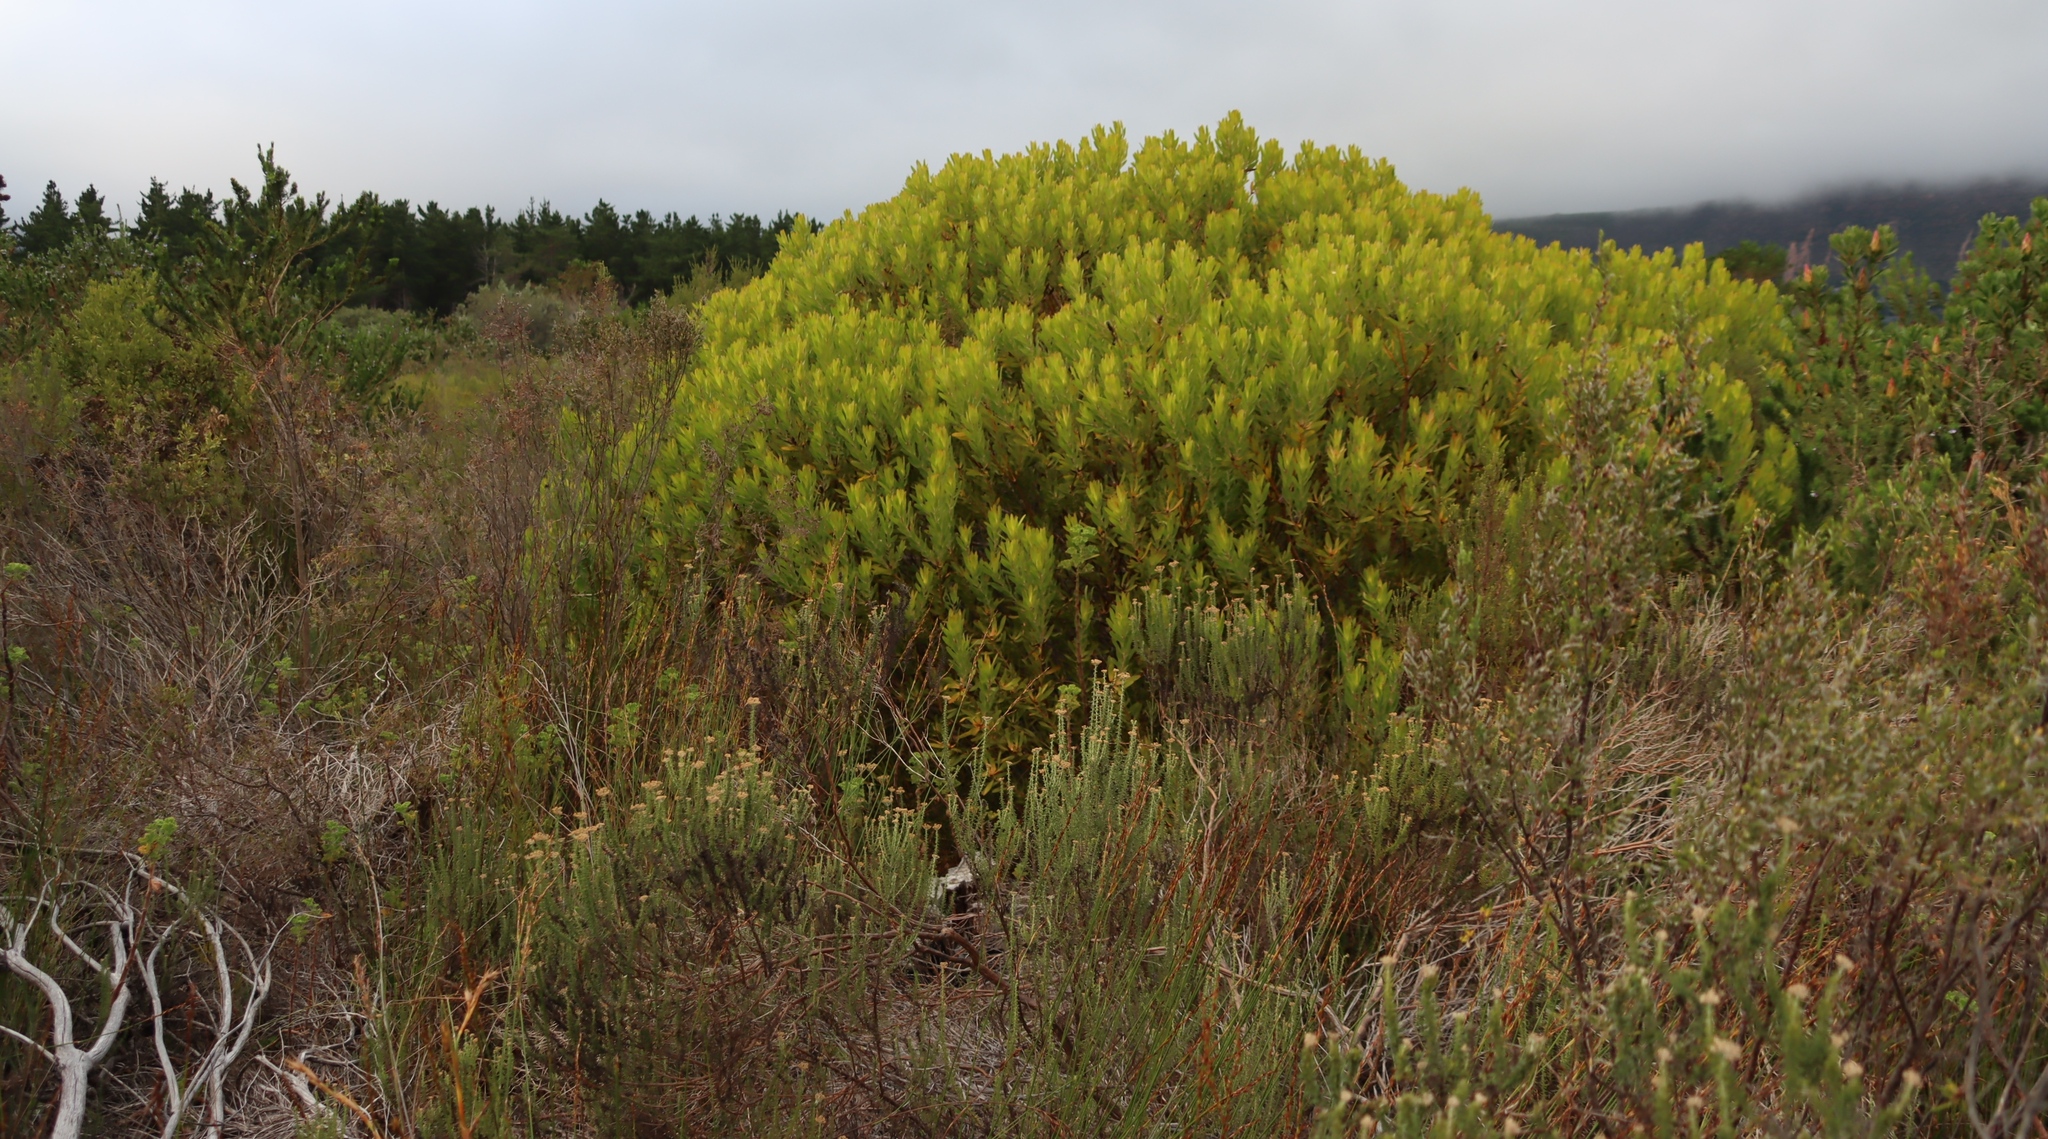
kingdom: Plantae
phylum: Tracheophyta
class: Magnoliopsida
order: Proteales
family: Proteaceae
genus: Leucadendron
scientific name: Leucadendron laureolum
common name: Golden sunshinebush
